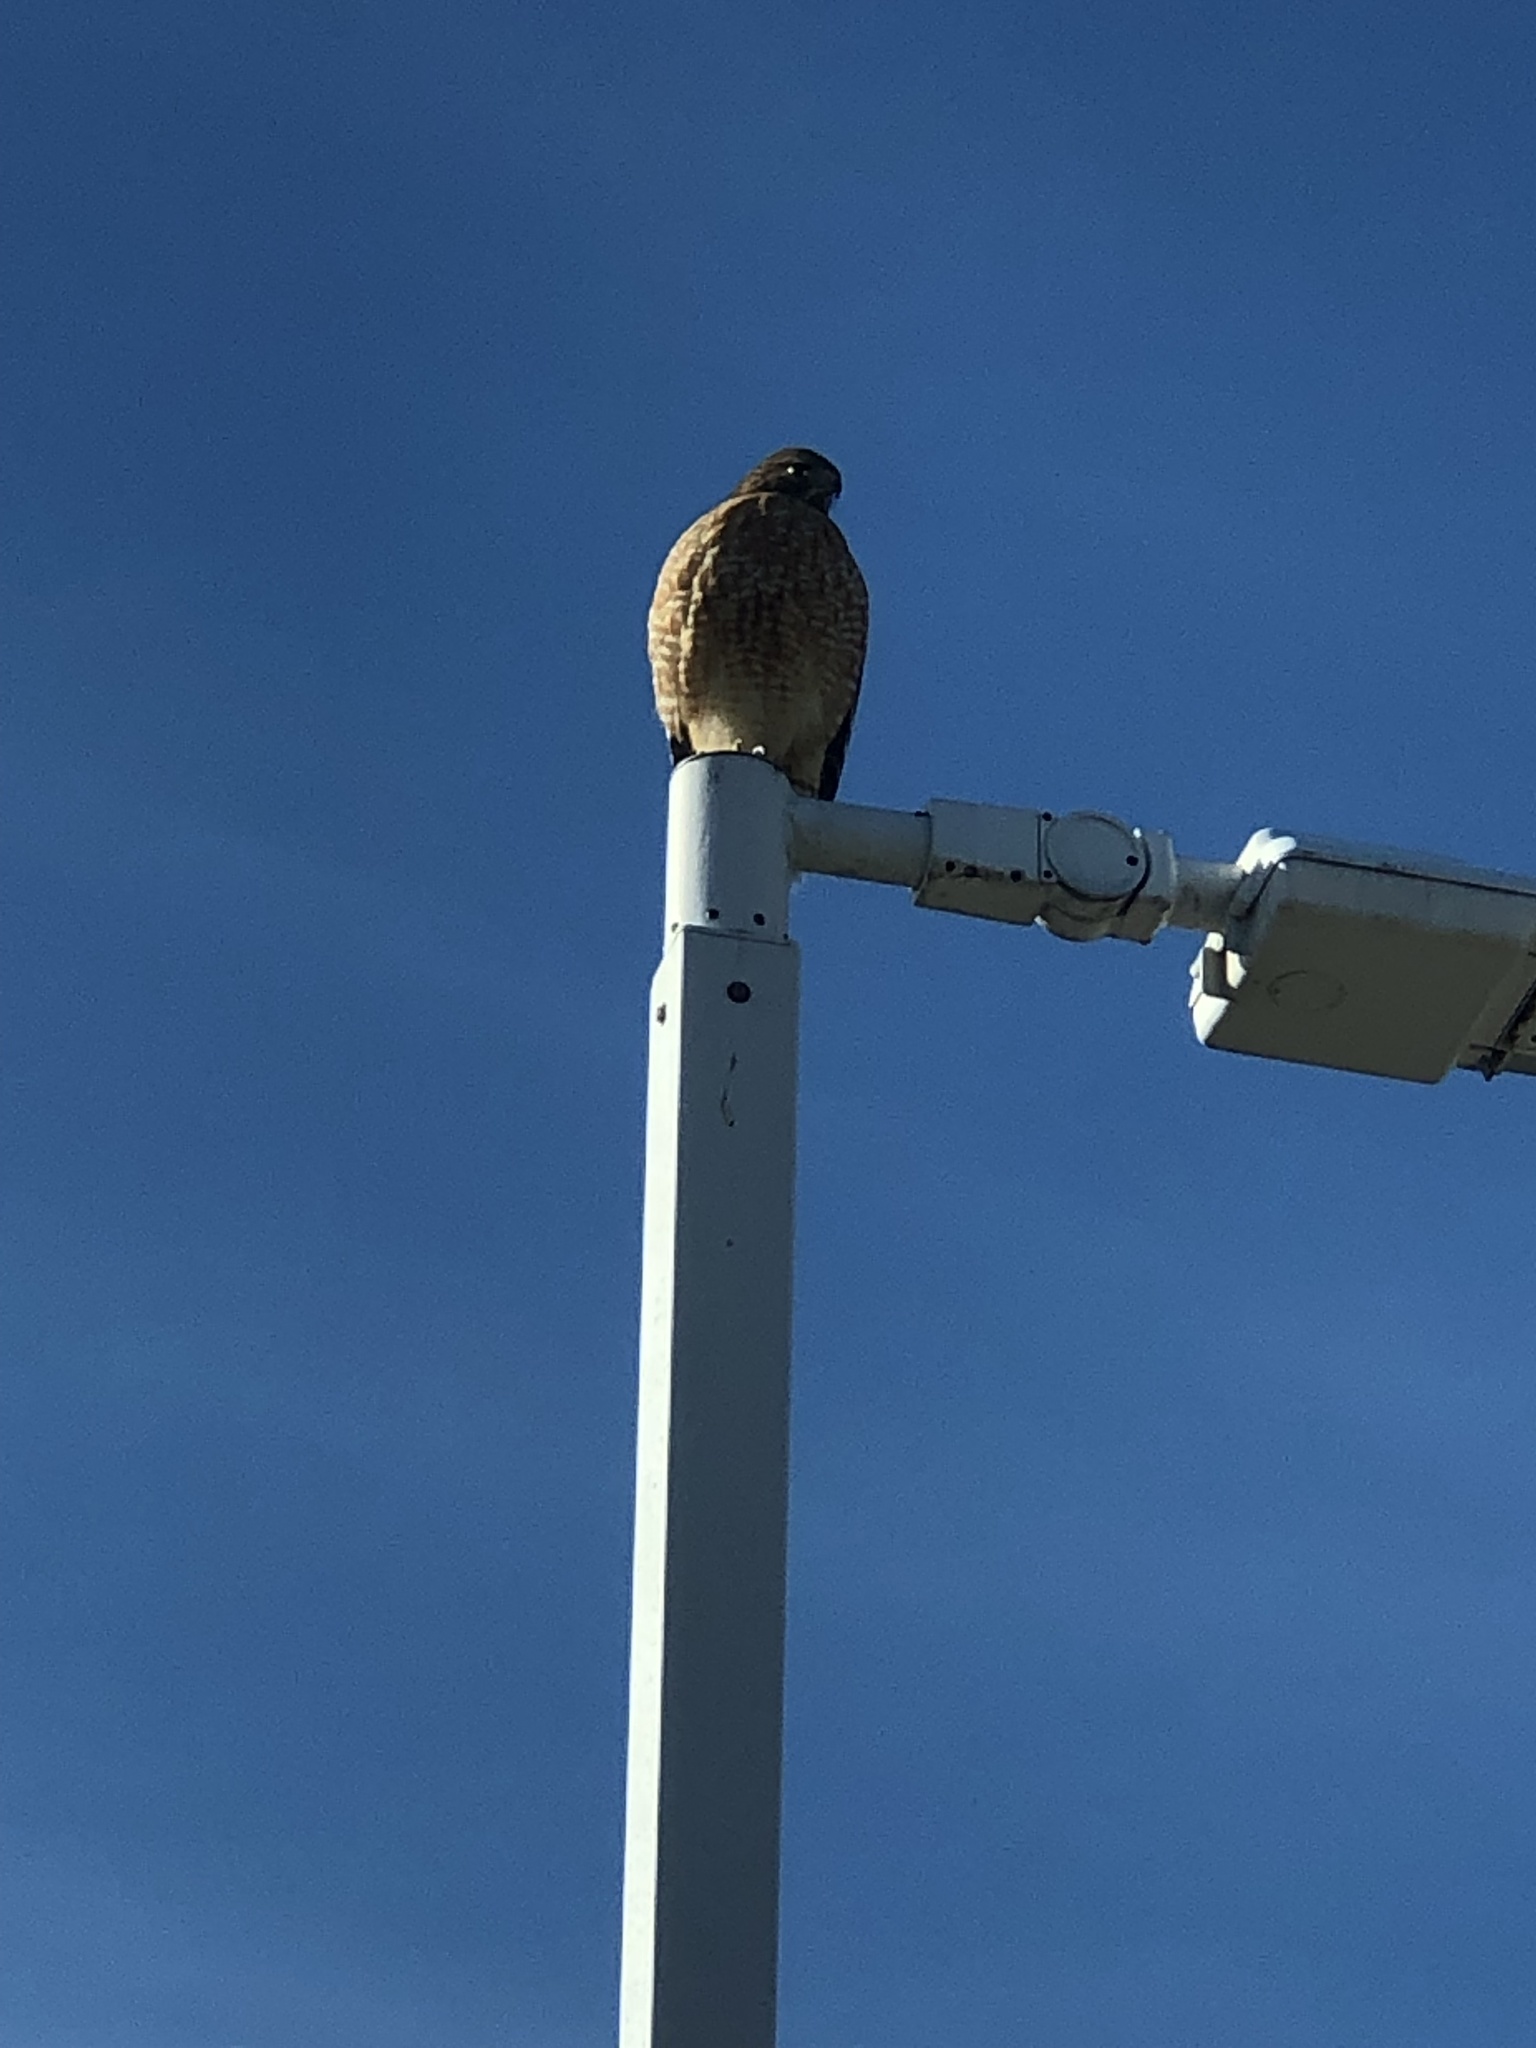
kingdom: Animalia
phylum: Chordata
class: Aves
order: Accipitriformes
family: Accipitridae
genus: Buteo
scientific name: Buteo lineatus
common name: Red-shouldered hawk
